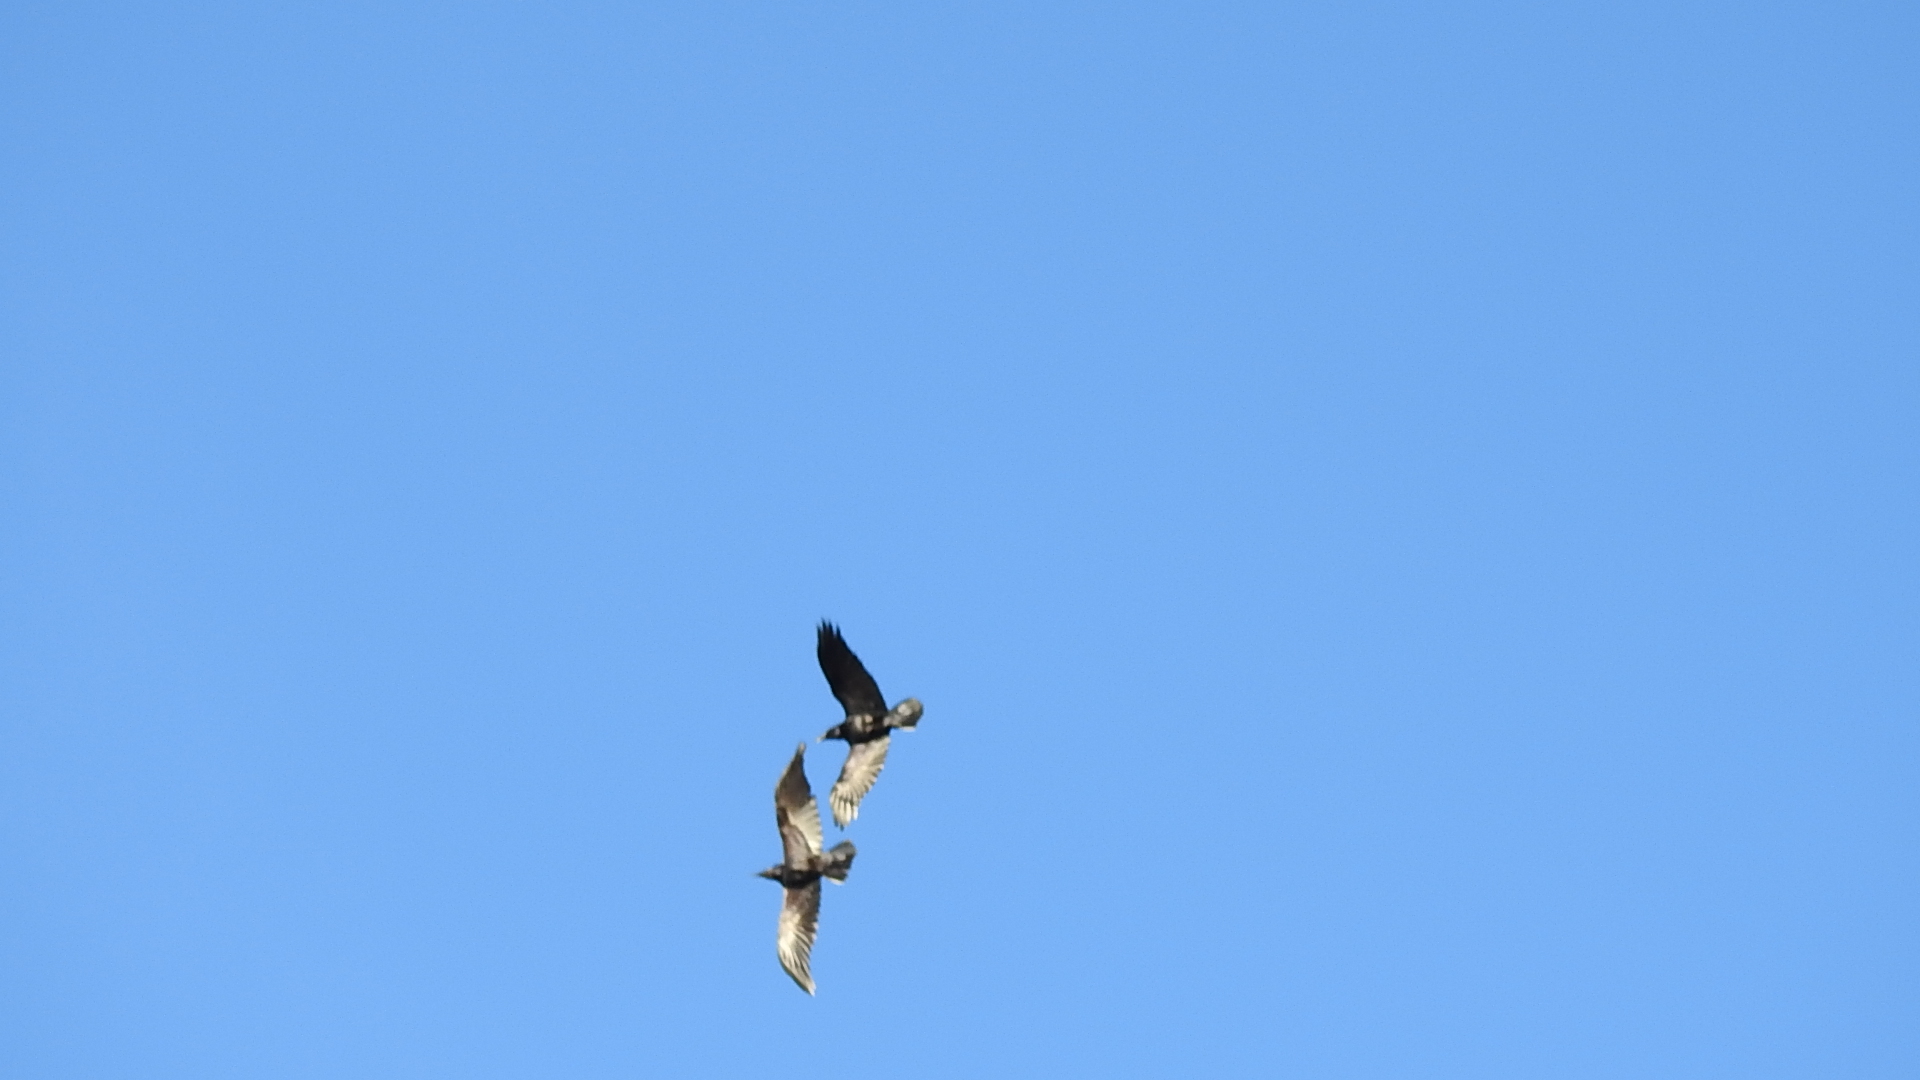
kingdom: Animalia
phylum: Chordata
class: Aves
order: Passeriformes
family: Corvidae
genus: Corvus
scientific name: Corvus corax
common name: Common raven
